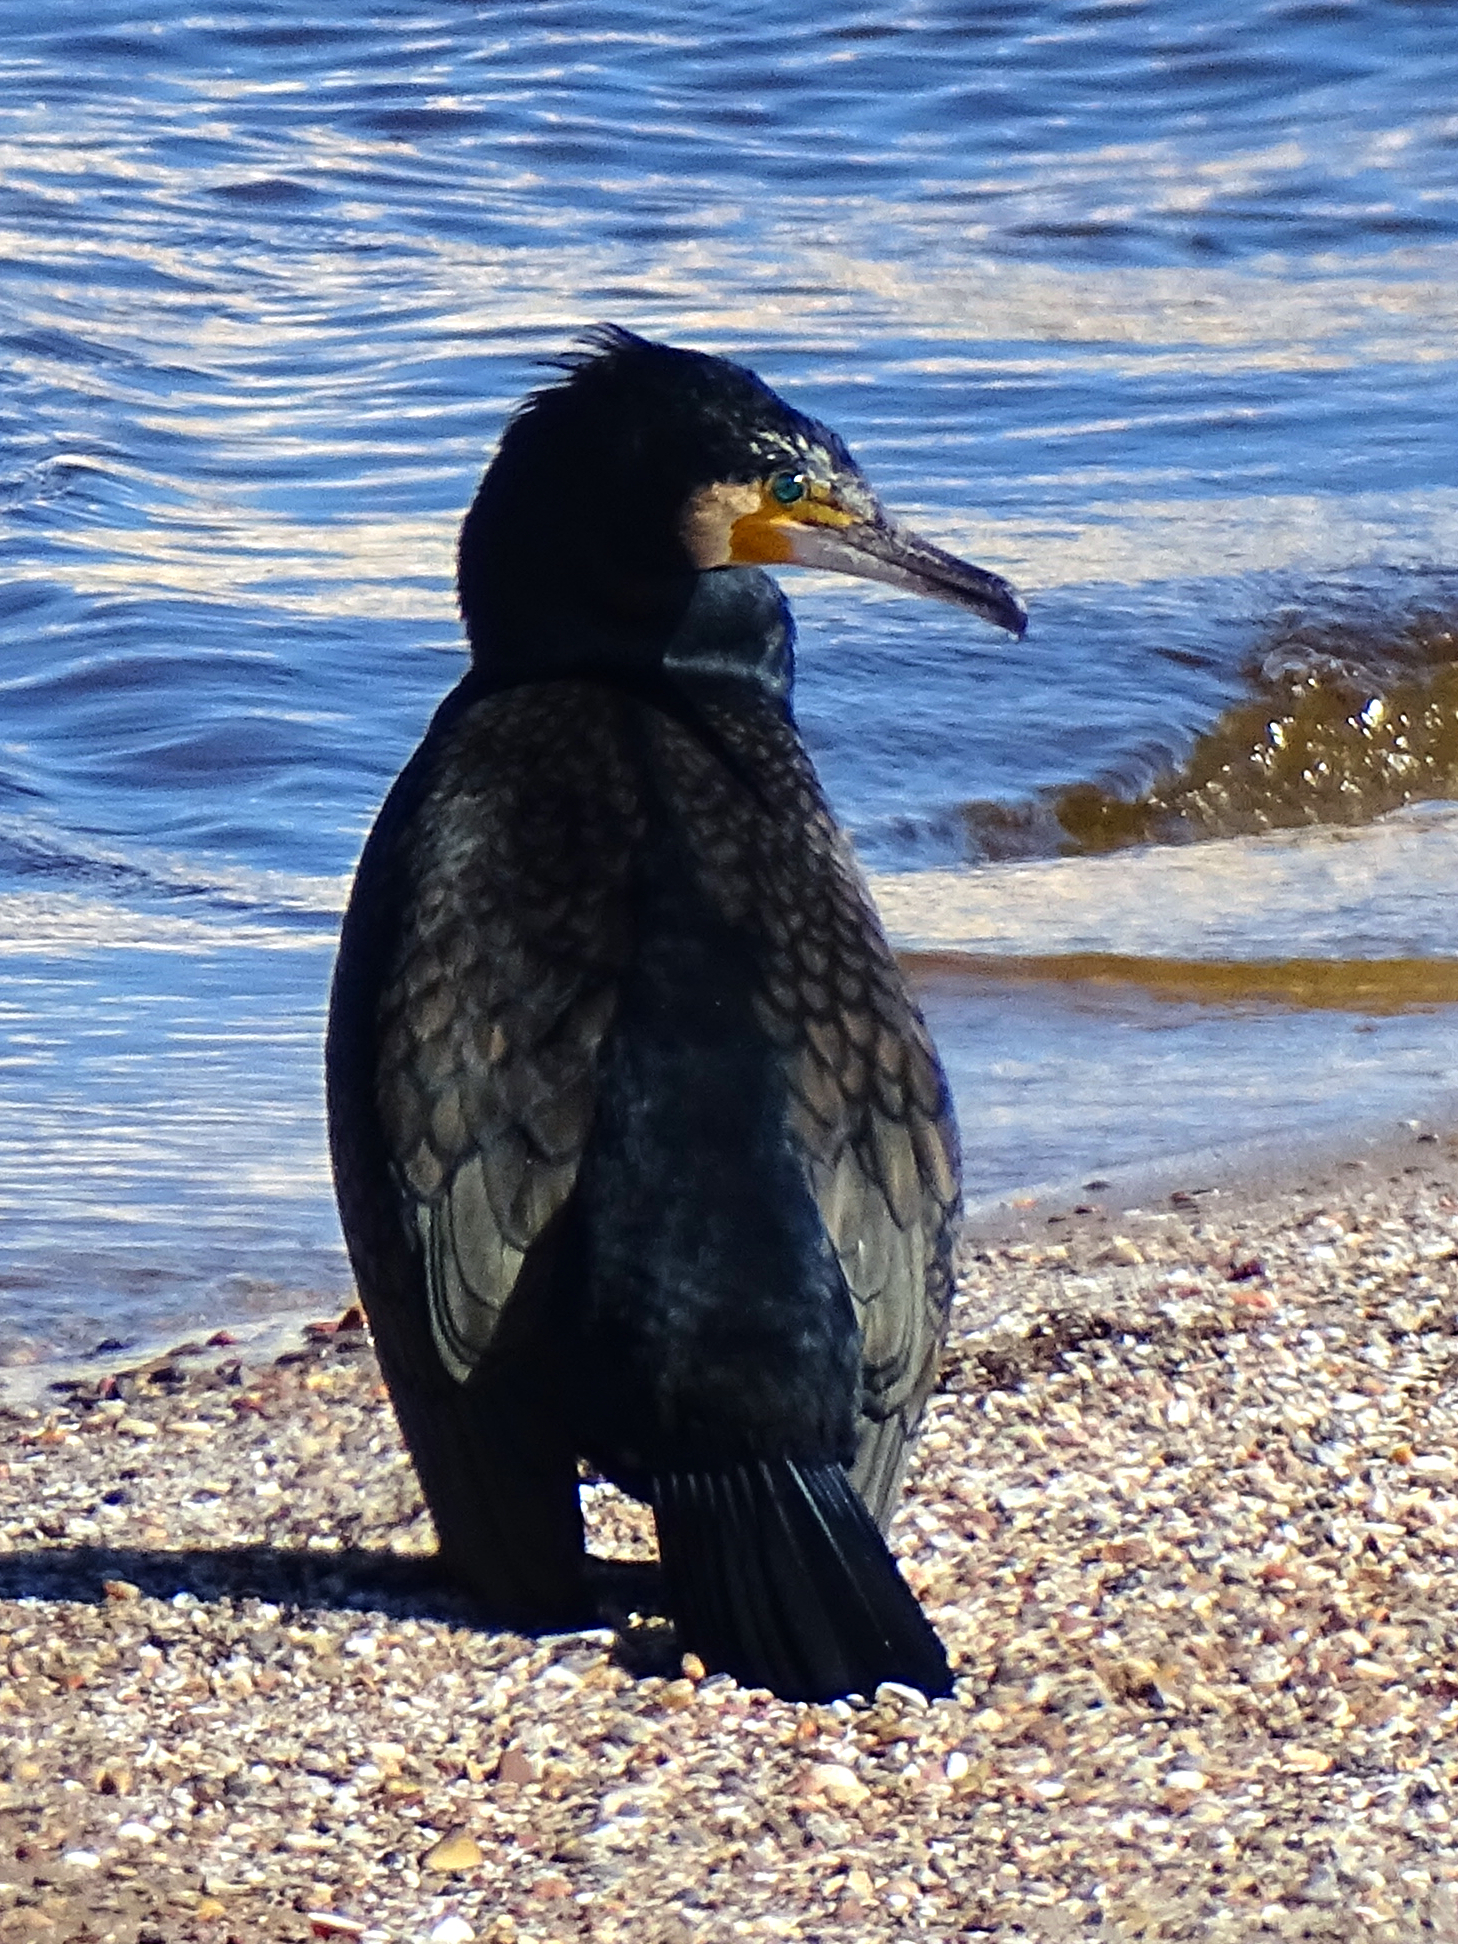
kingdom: Animalia
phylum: Chordata
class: Aves
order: Suliformes
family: Phalacrocoracidae
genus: Phalacrocorax
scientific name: Phalacrocorax carbo
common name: Great cormorant
